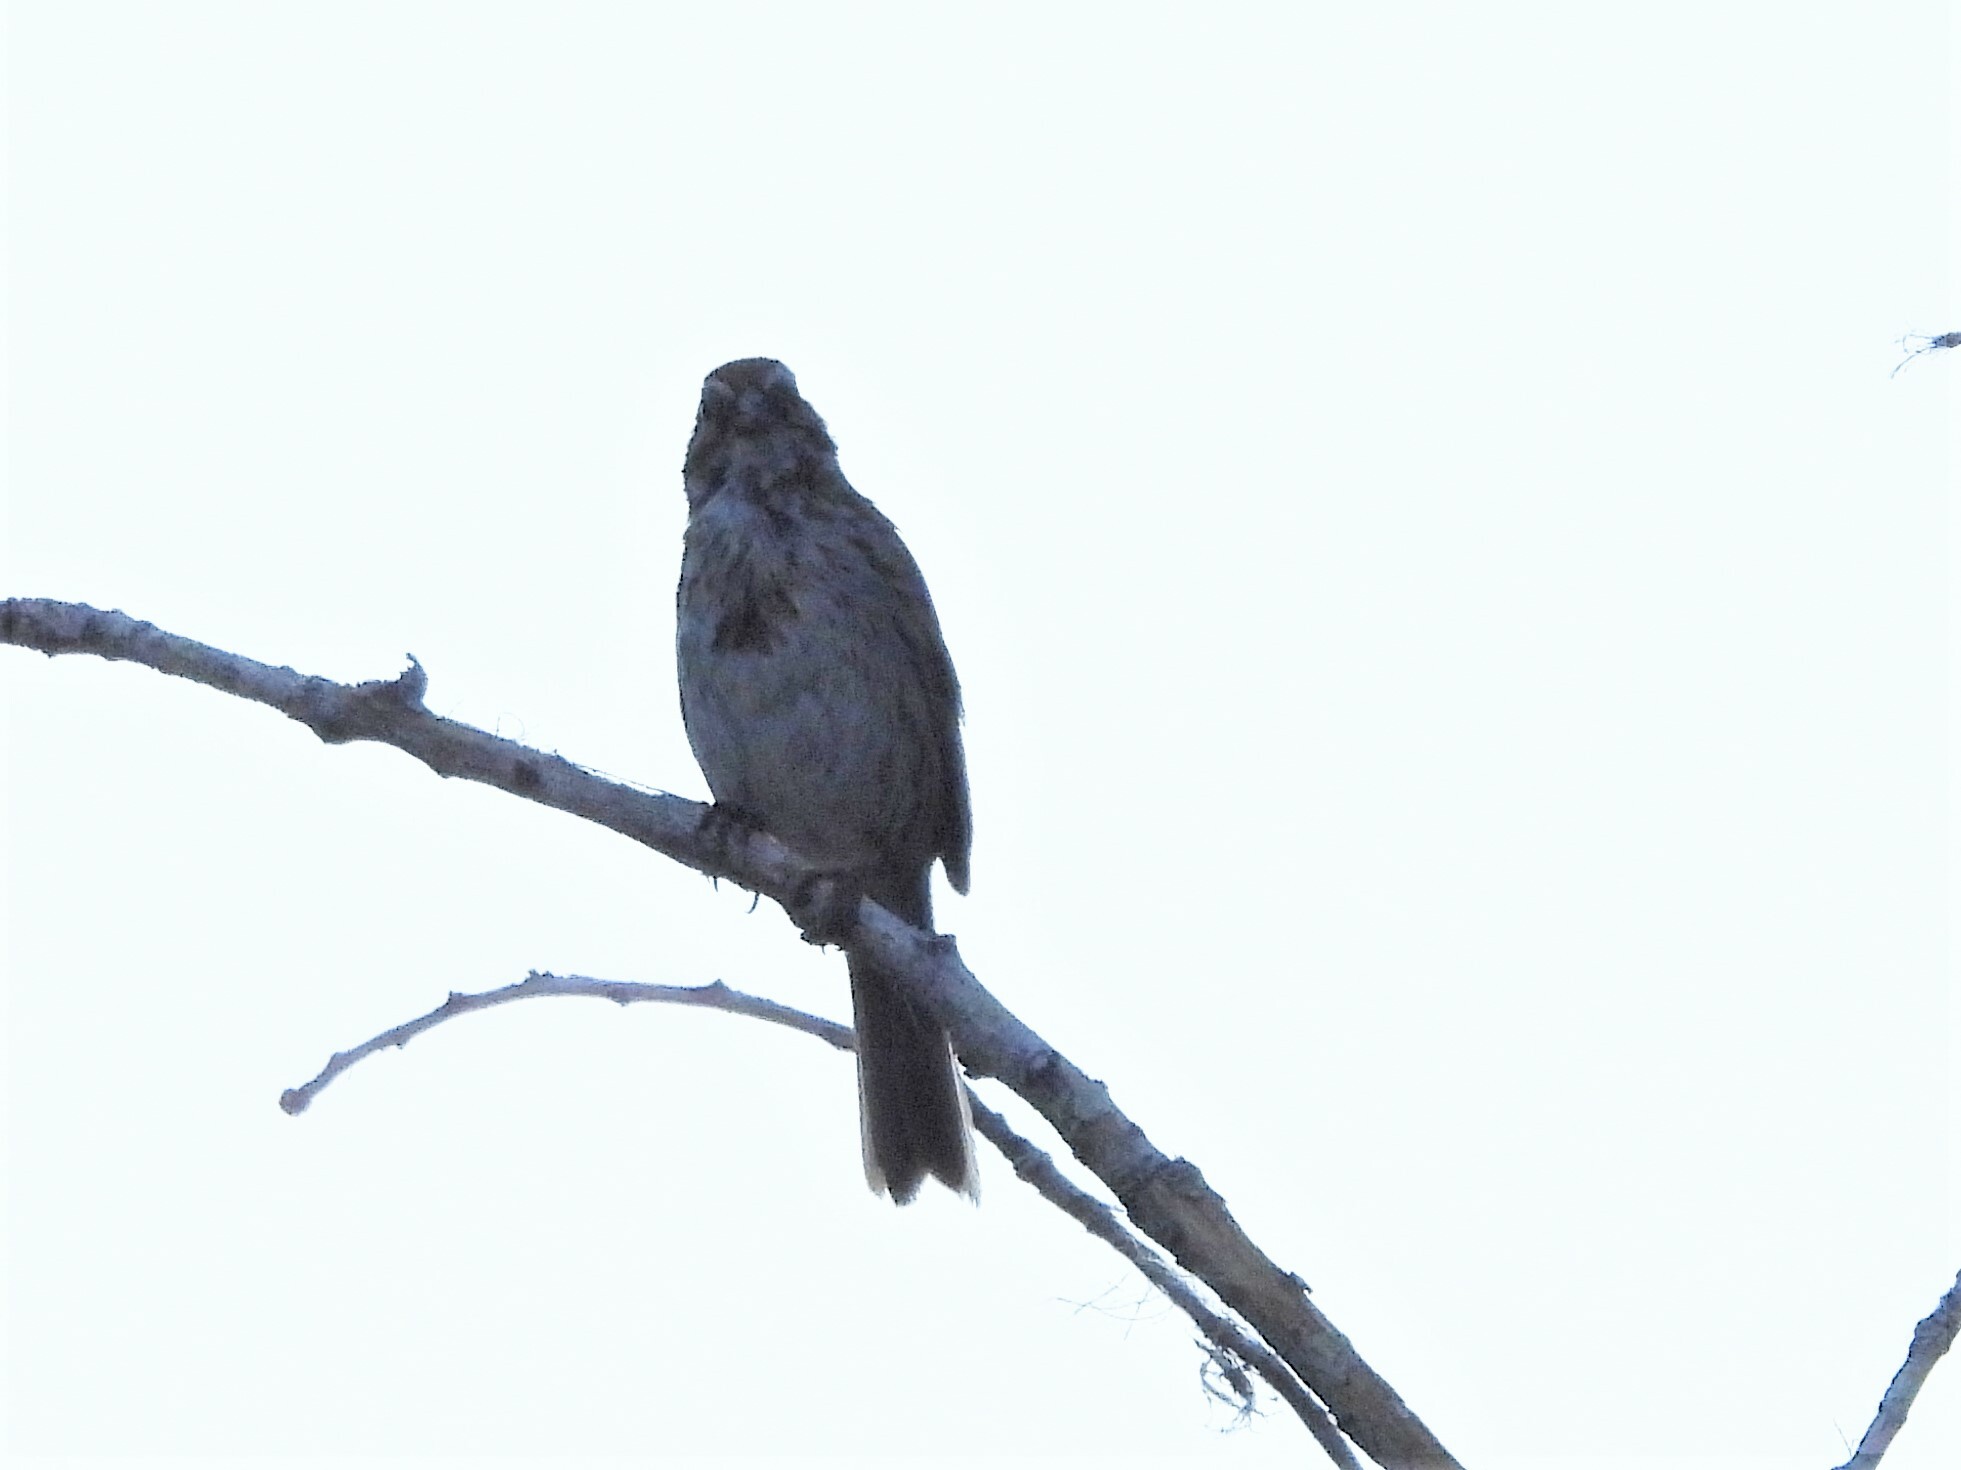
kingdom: Animalia
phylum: Chordata
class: Aves
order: Passeriformes
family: Passerellidae
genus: Melospiza
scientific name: Melospiza melodia
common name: Song sparrow
